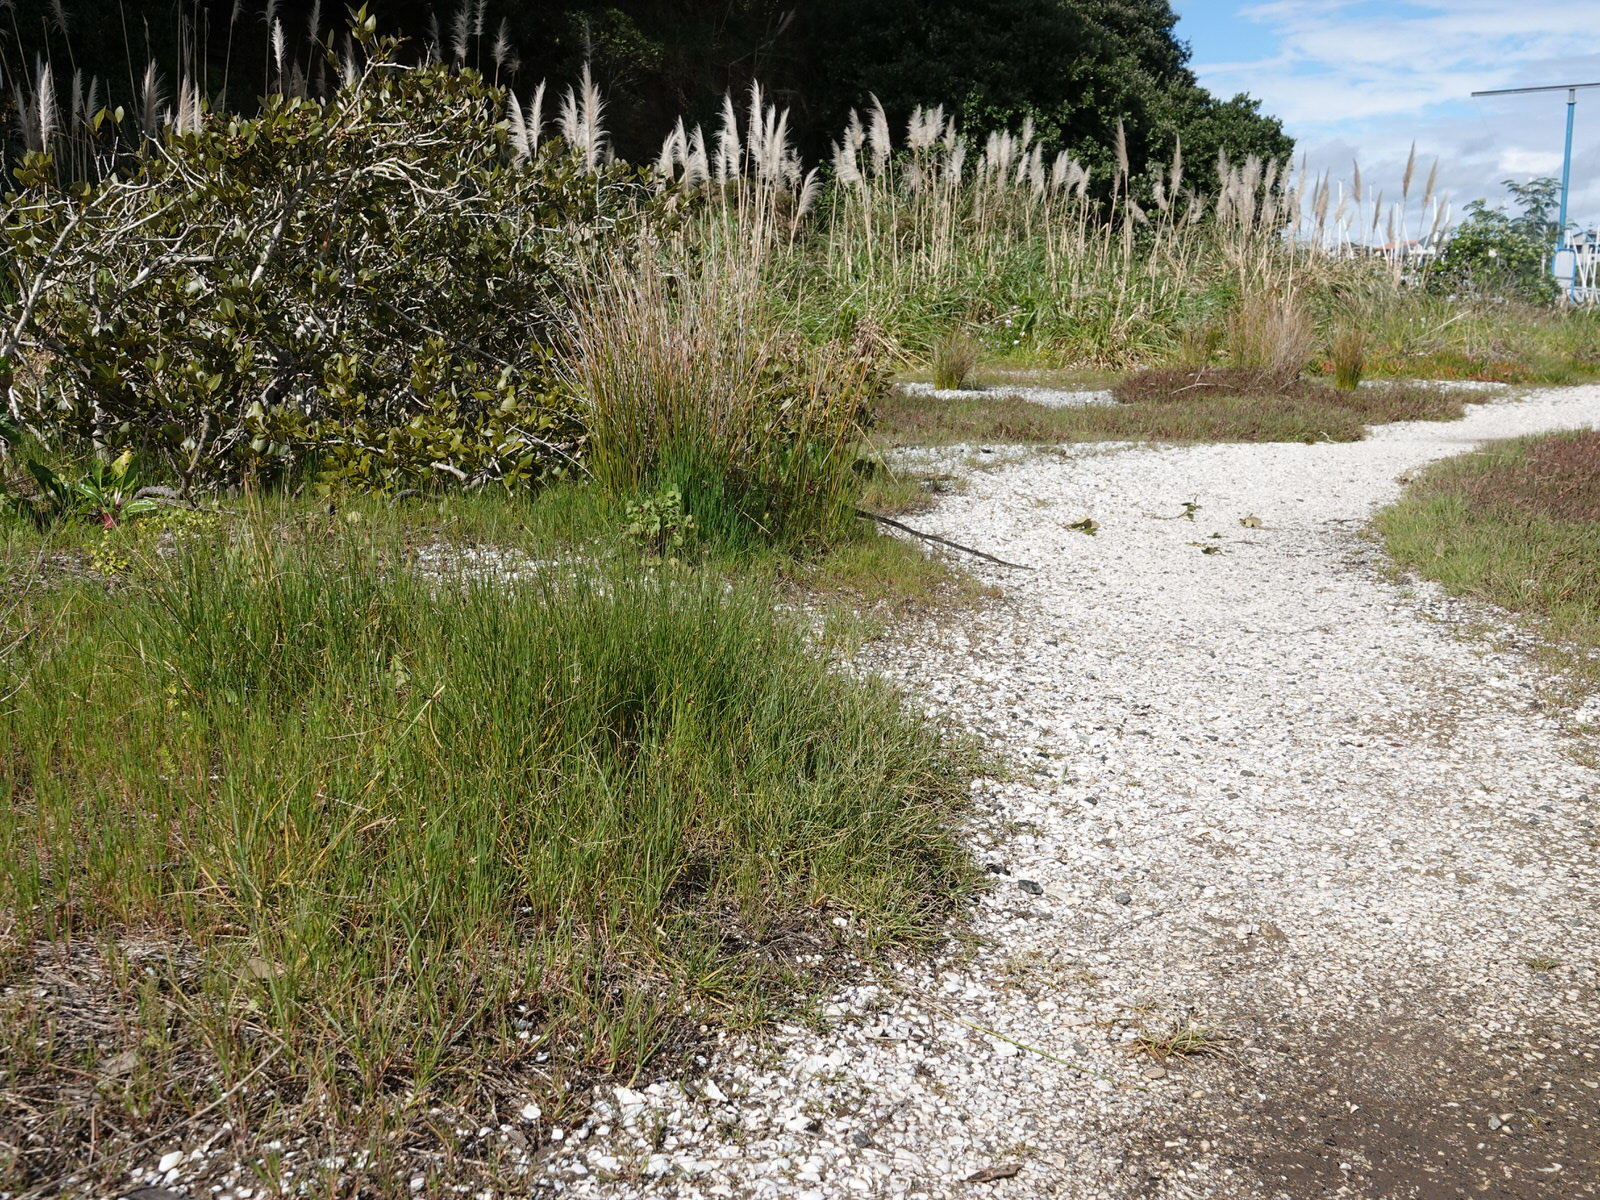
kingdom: Plantae
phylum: Tracheophyta
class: Liliopsida
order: Poales
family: Cyperaceae
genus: Carex
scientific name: Carex divisa
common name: Divided sedge
